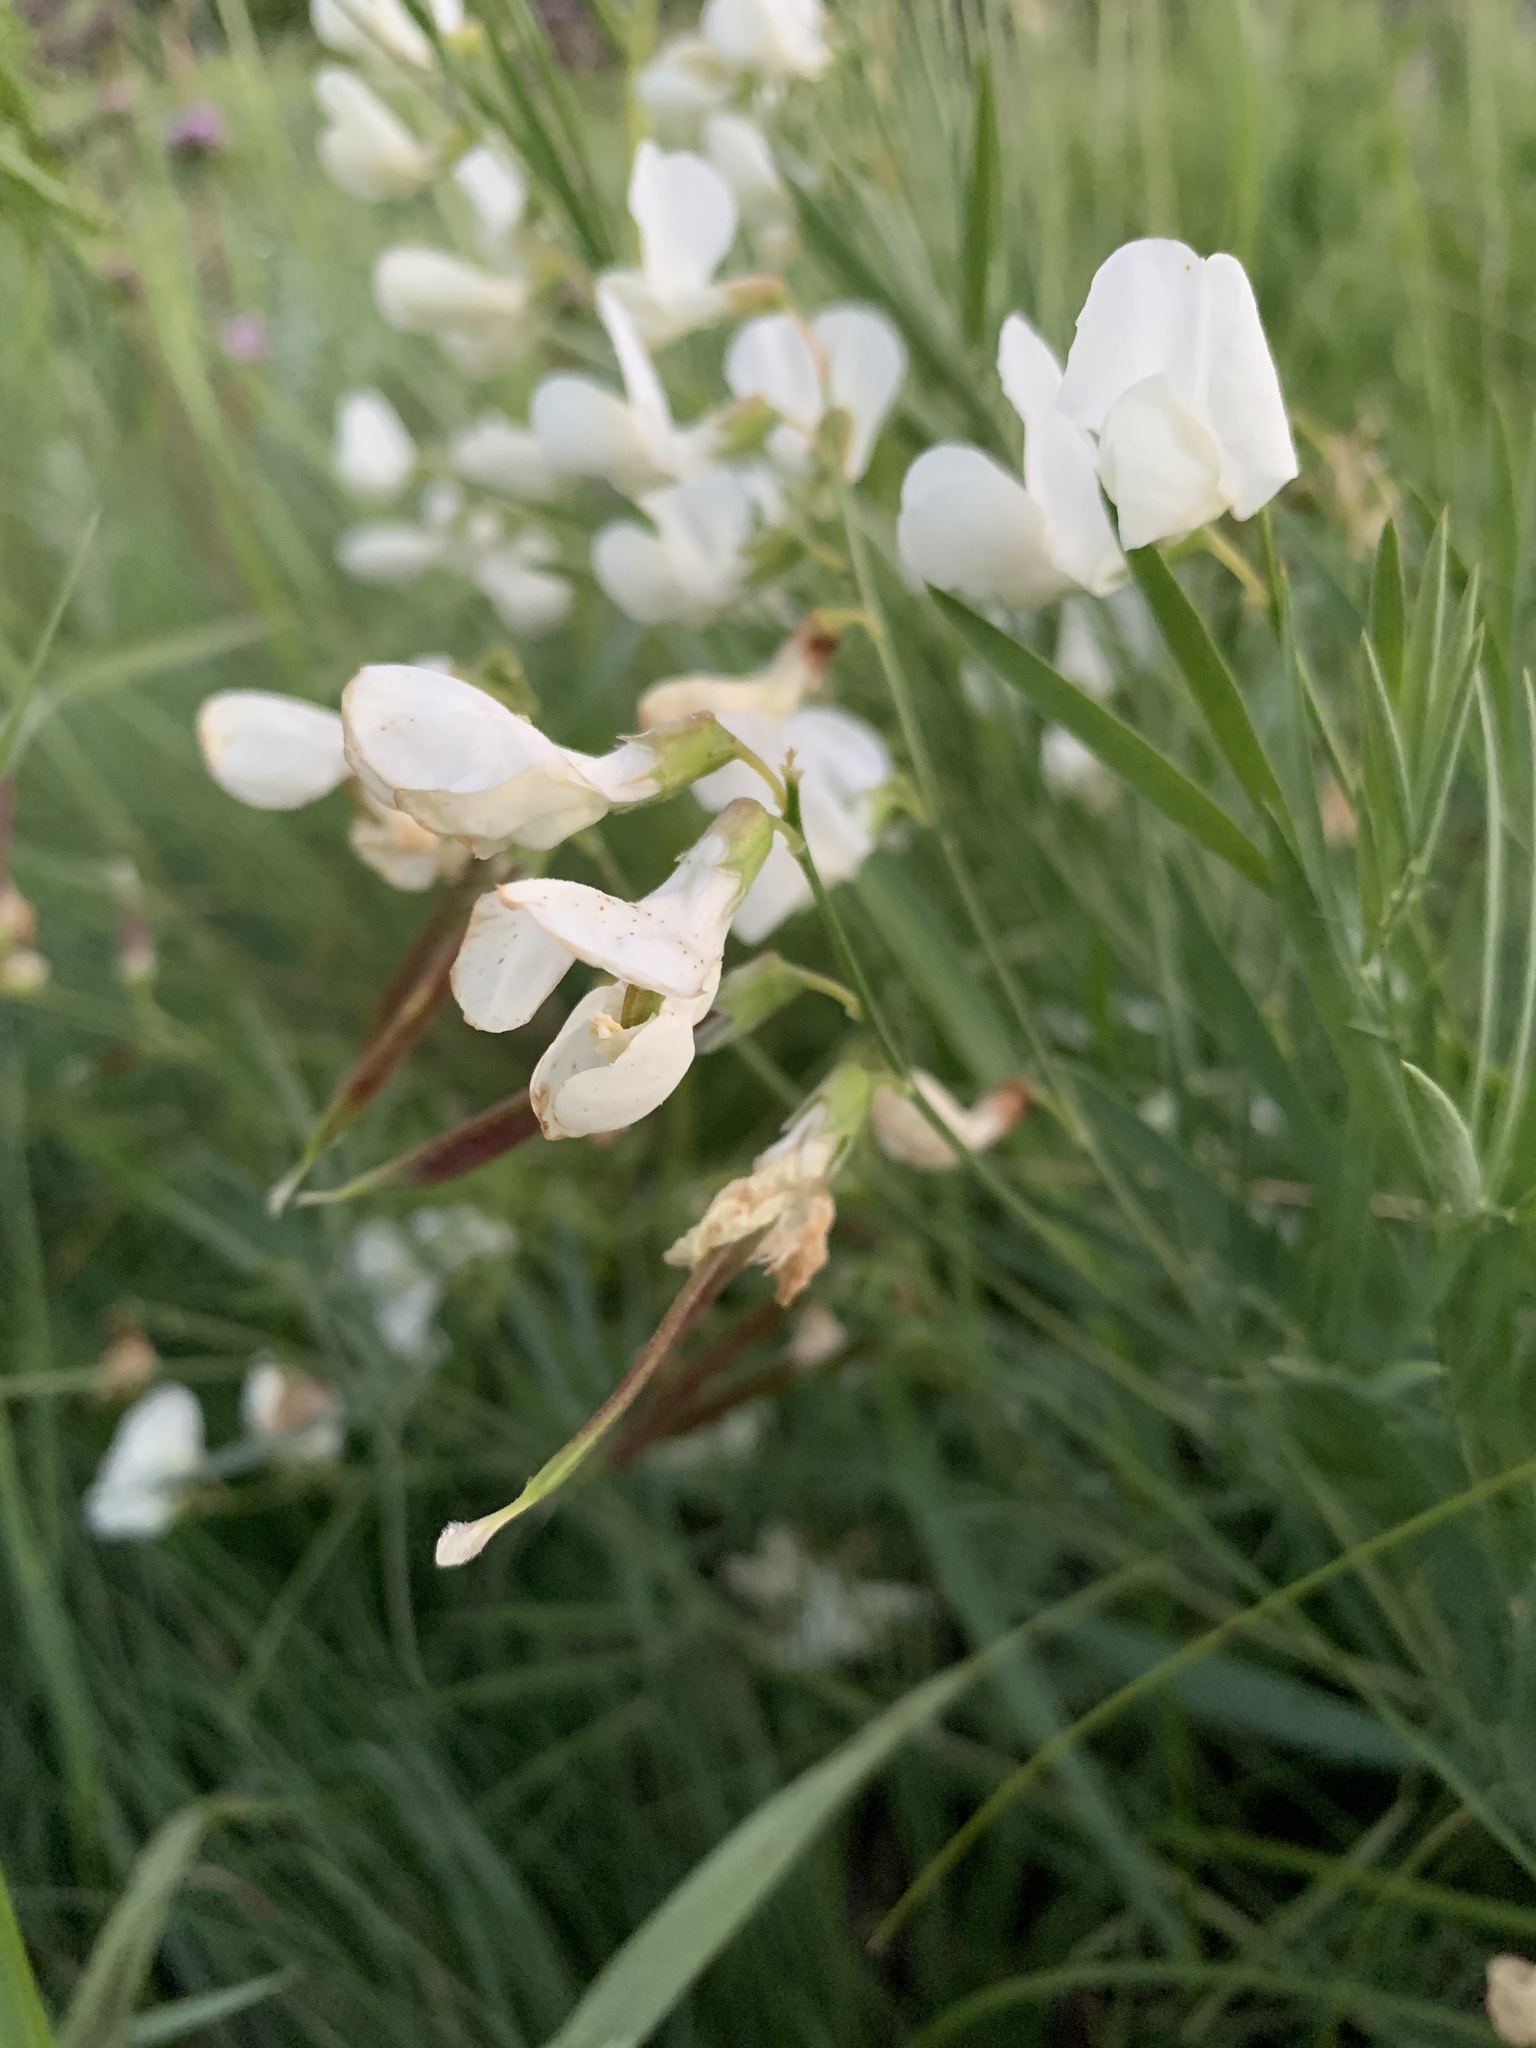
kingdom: Plantae
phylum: Tracheophyta
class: Magnoliopsida
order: Fabales
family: Fabaceae
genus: Lathyrus
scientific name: Lathyrus pannonicus
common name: Pea
